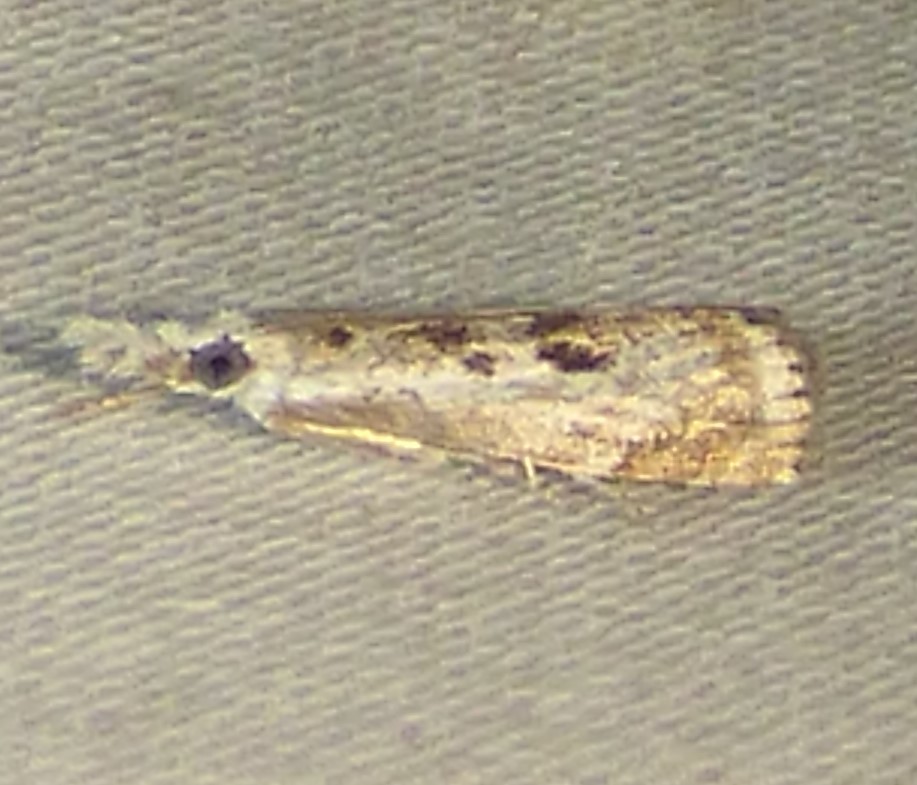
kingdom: Animalia
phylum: Arthropoda
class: Insecta
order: Lepidoptera
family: Crambidae
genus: Microcrambus
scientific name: Microcrambus immunellus
